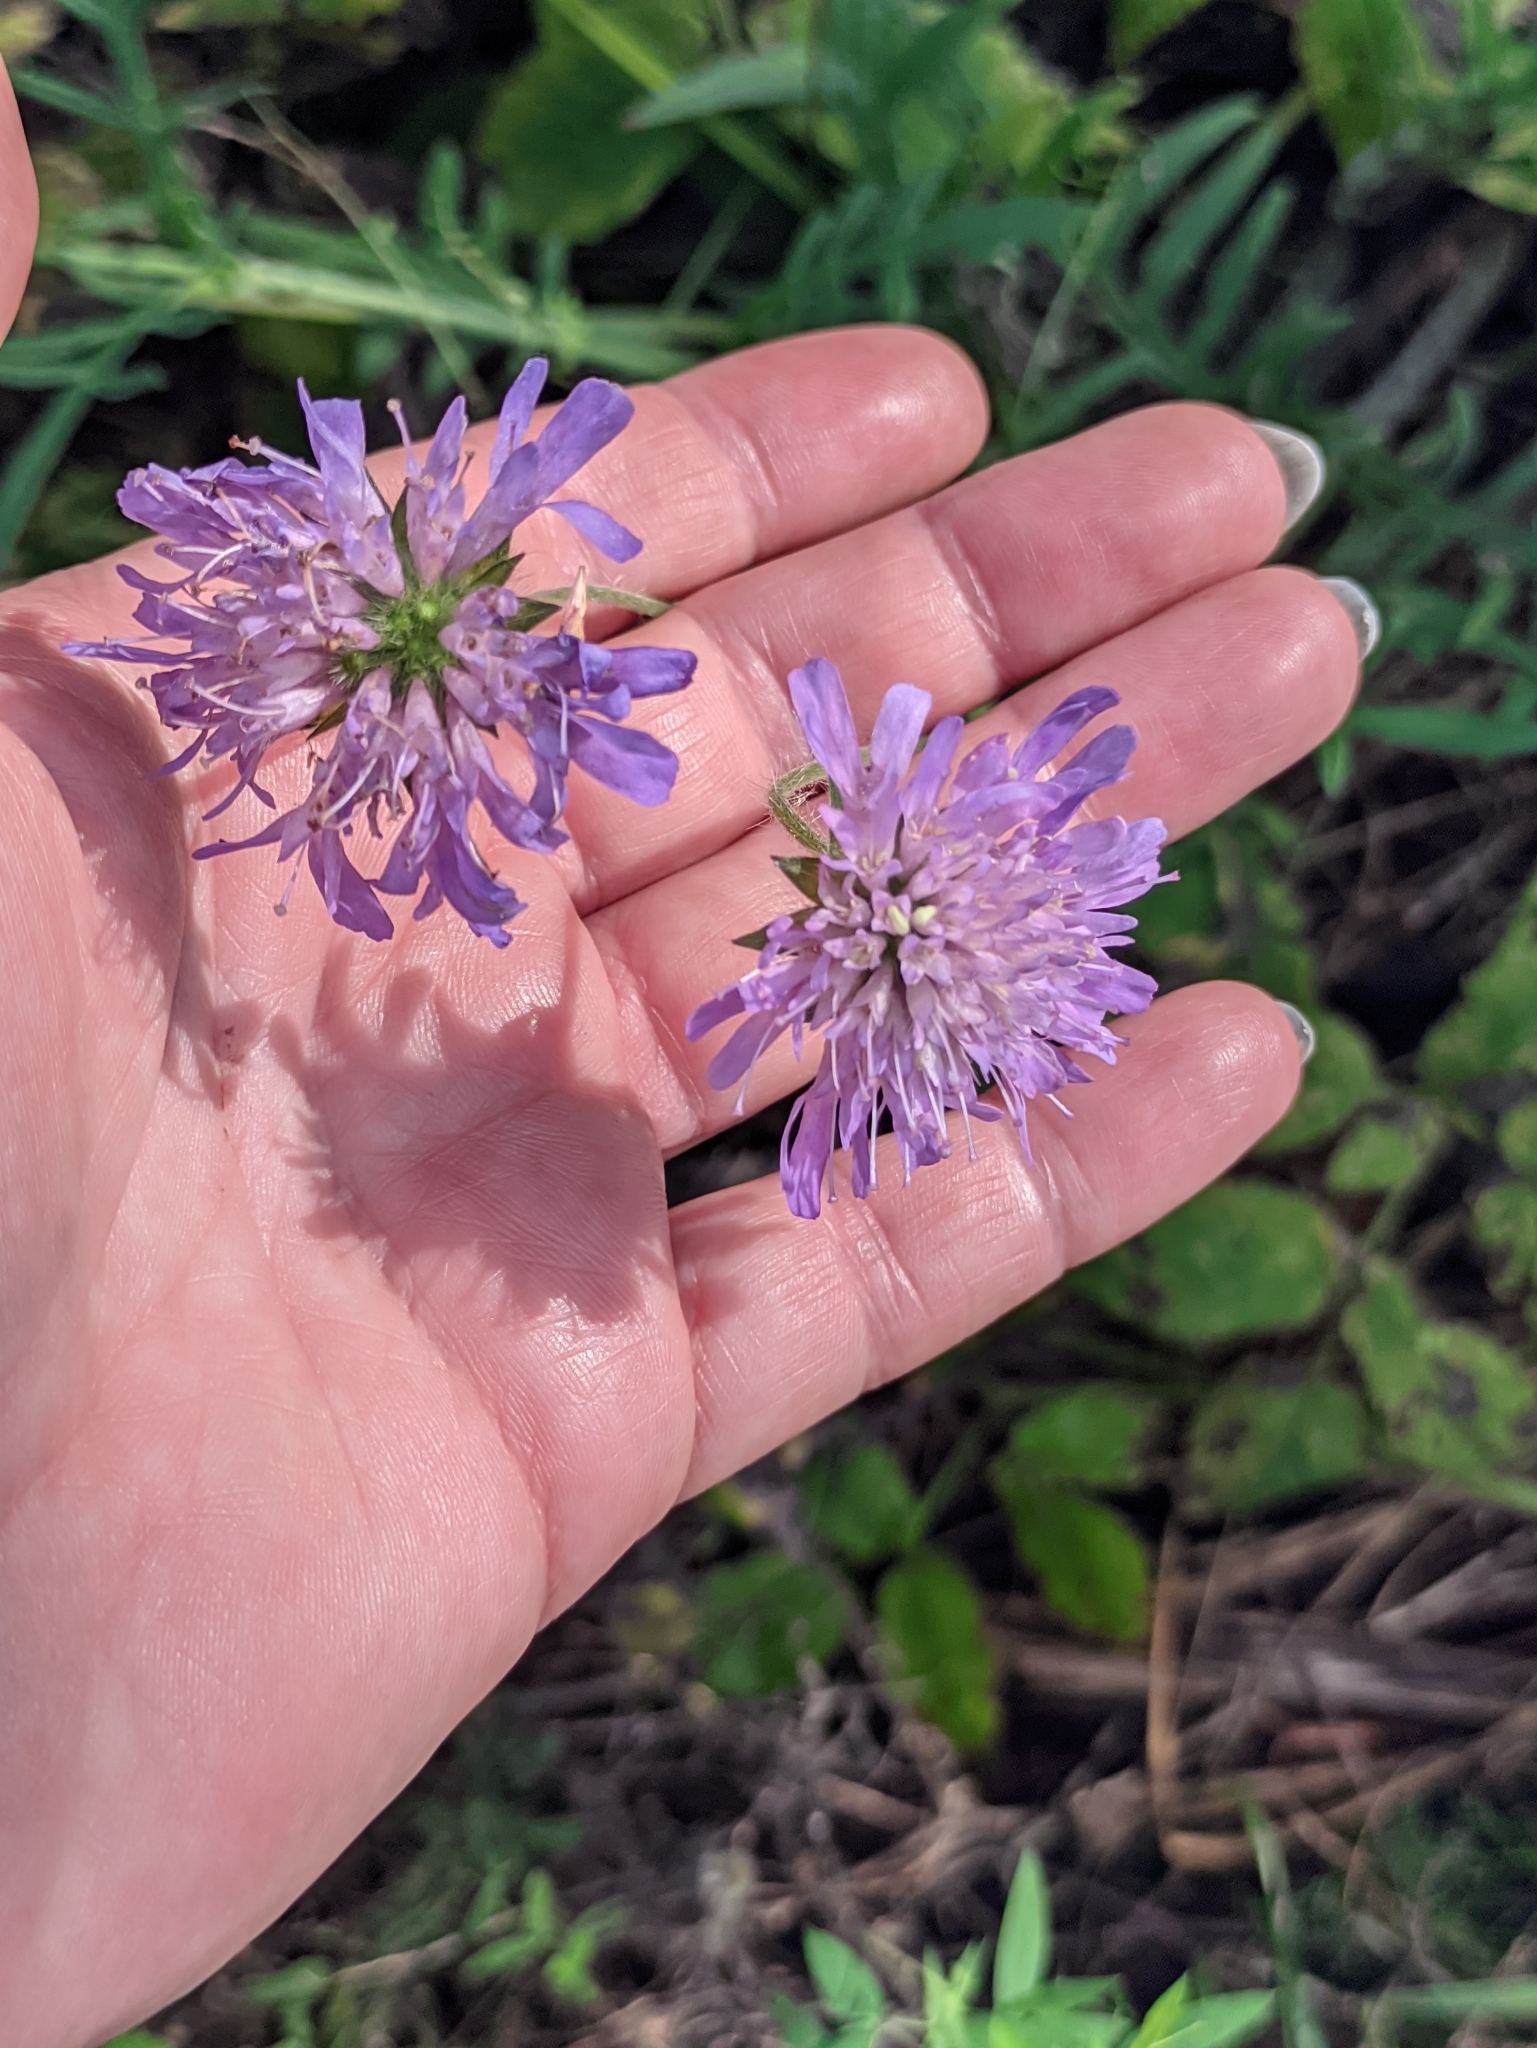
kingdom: Plantae
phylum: Tracheophyta
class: Magnoliopsida
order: Dipsacales
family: Caprifoliaceae
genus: Knautia
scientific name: Knautia arvensis
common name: Field scabiosa
